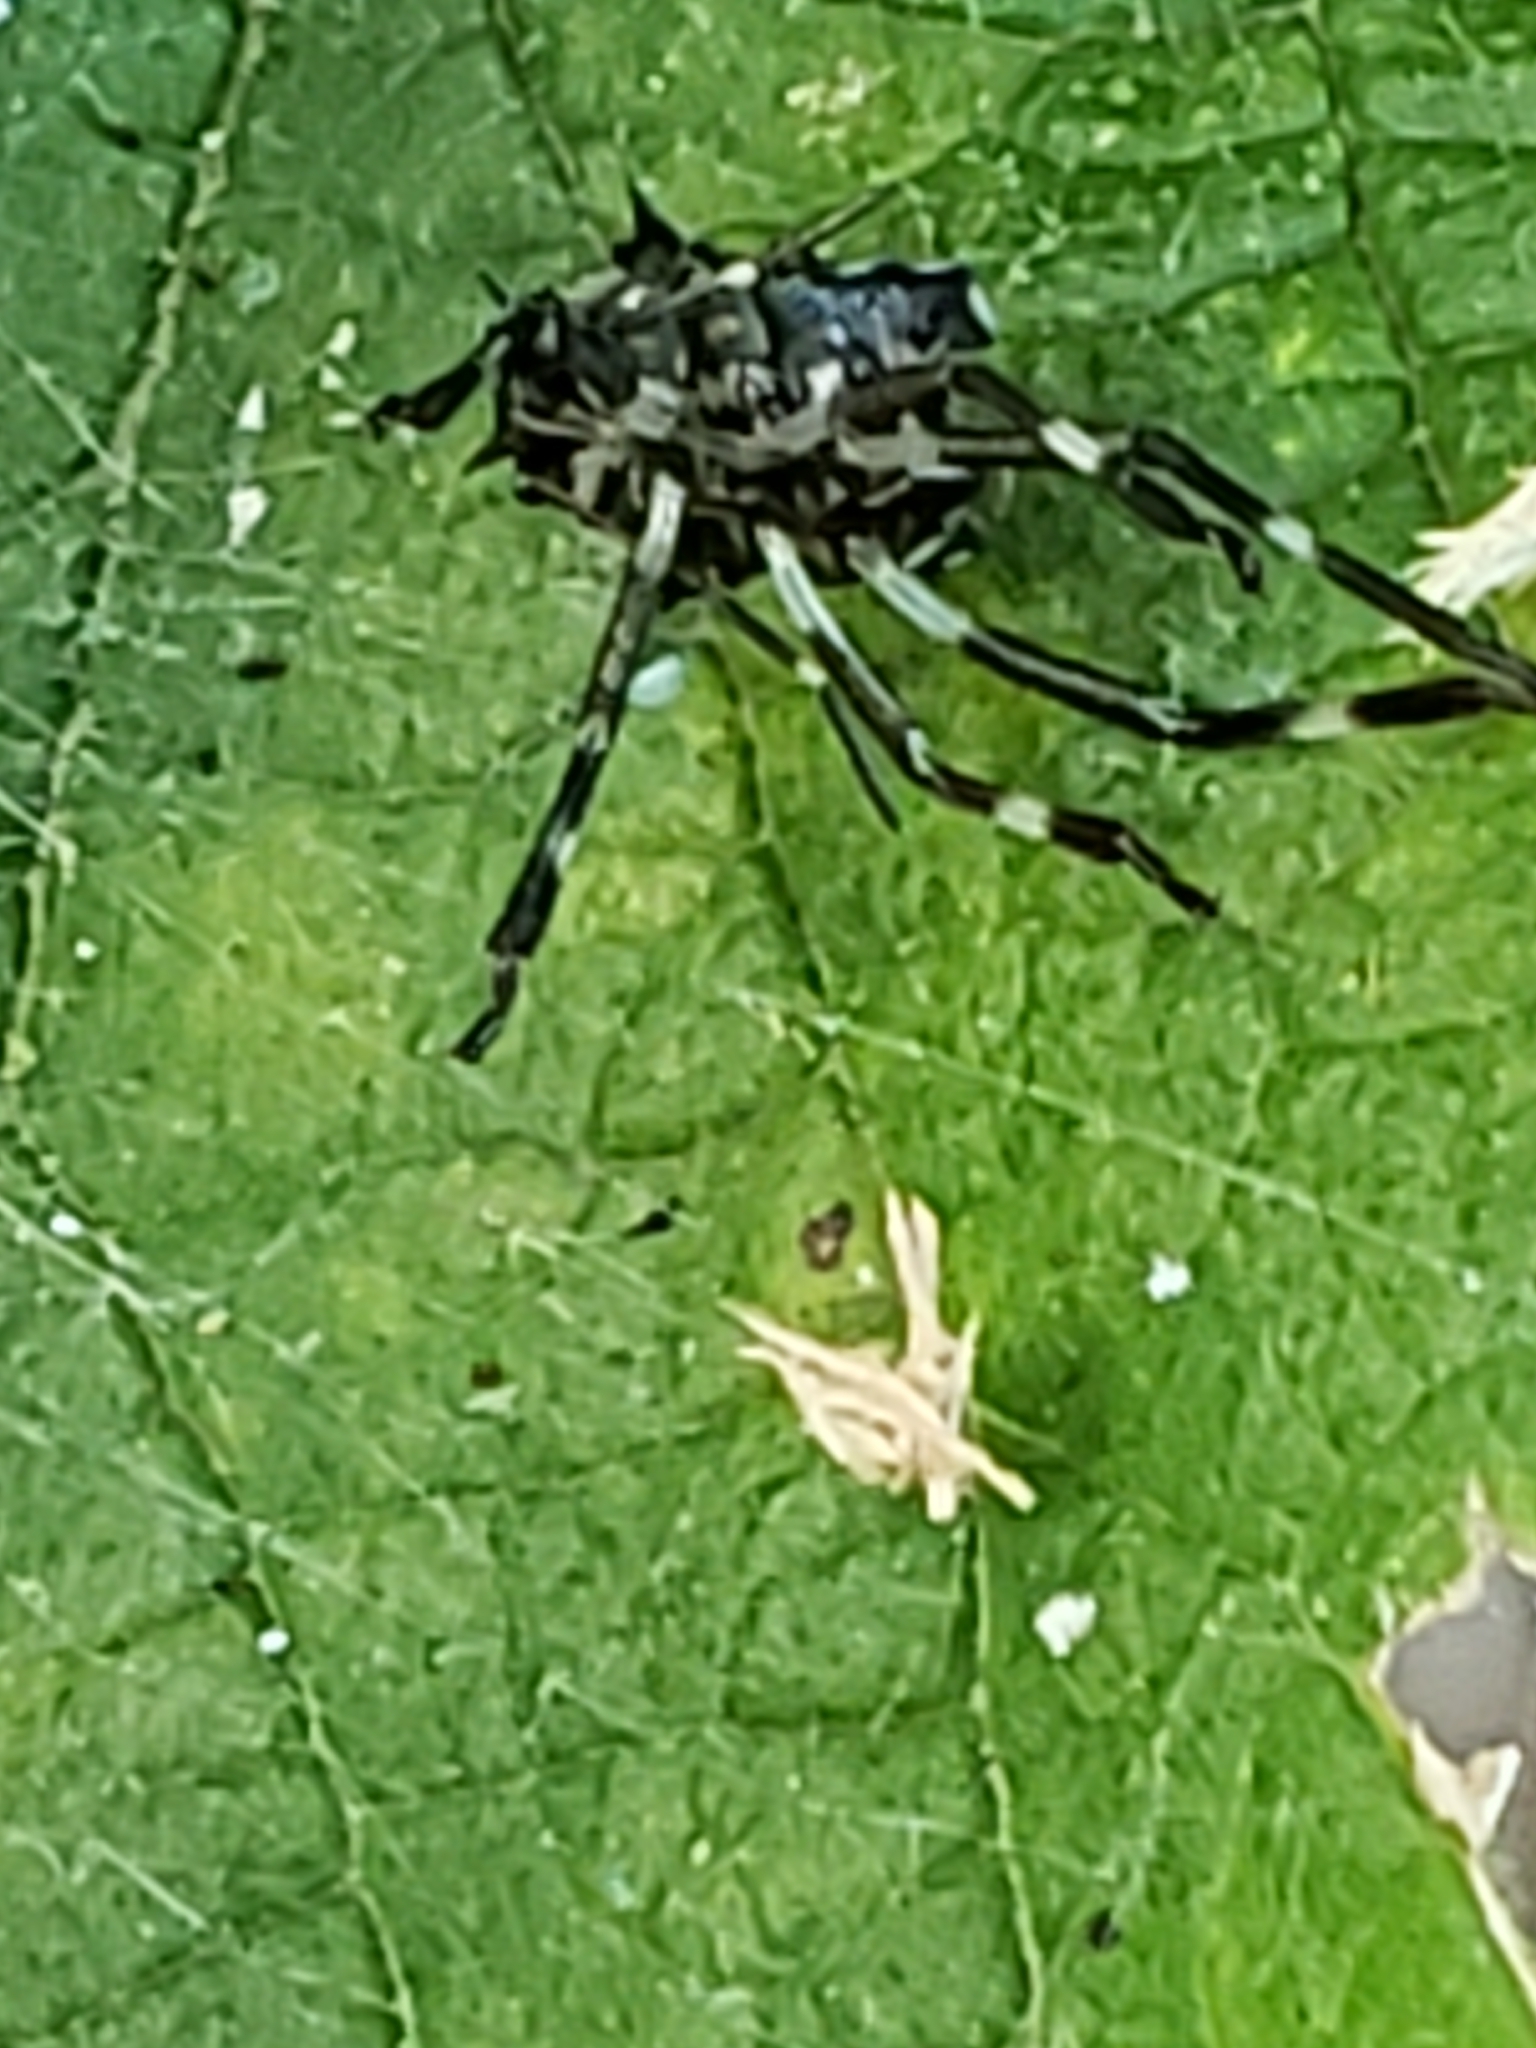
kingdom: Animalia
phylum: Arthropoda
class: Insecta
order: Hemiptera
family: Pentatomidae
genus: Halyomorpha
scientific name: Halyomorpha halys
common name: Brown marmorated stink bug
